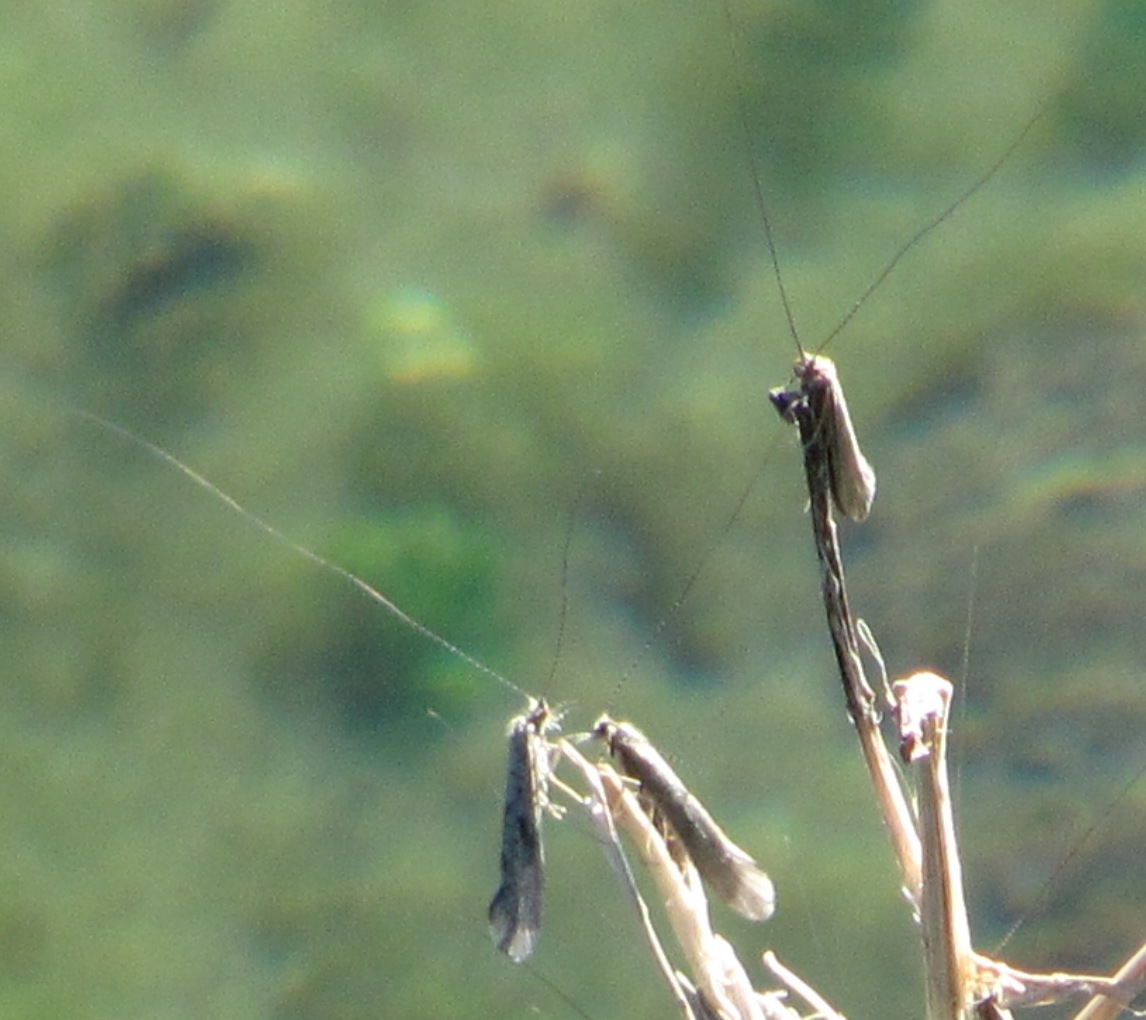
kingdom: Animalia
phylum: Arthropoda
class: Insecta
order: Trichoptera
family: Leptoceridae
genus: Hudsonema
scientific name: Hudsonema amabile
